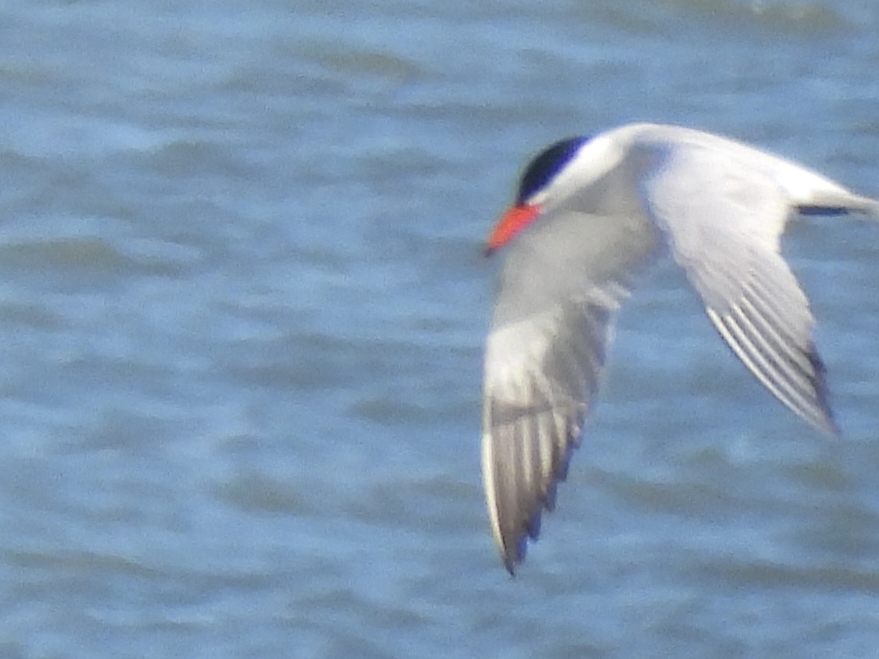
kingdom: Animalia
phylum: Chordata
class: Aves
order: Charadriiformes
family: Laridae
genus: Hydroprogne
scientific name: Hydroprogne caspia
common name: Caspian tern
